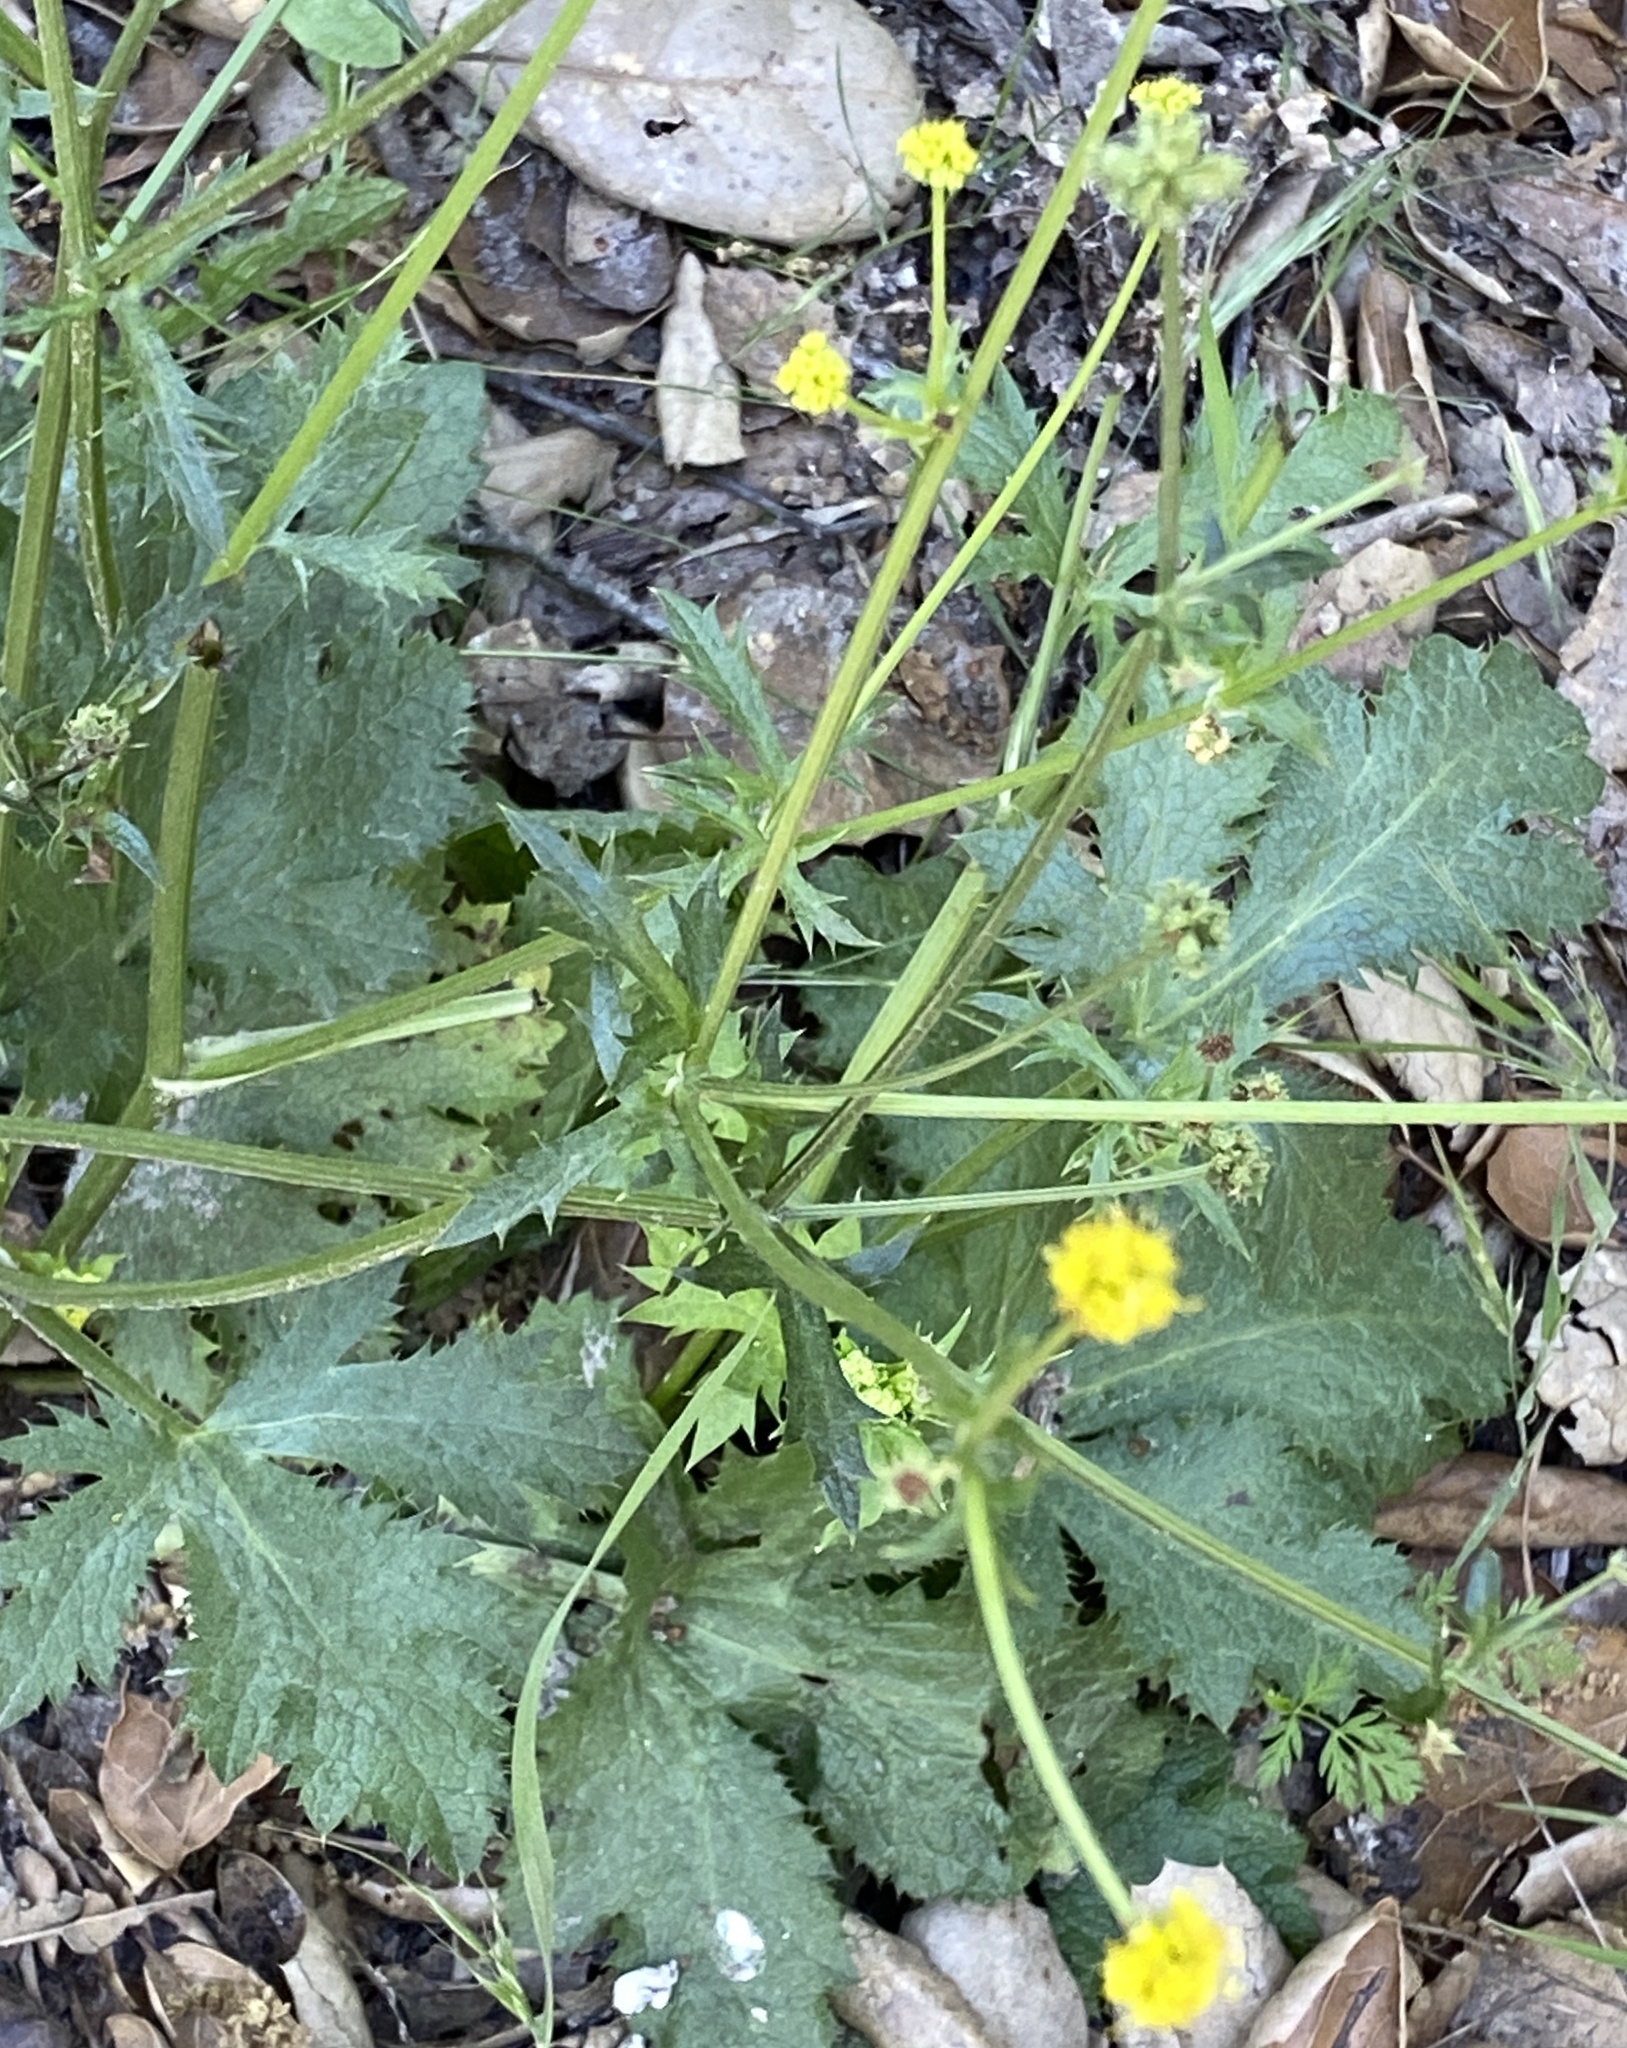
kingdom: Plantae
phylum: Tracheophyta
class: Magnoliopsida
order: Apiales
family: Apiaceae
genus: Sanicula
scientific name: Sanicula crassicaulis
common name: Western snakeroot
